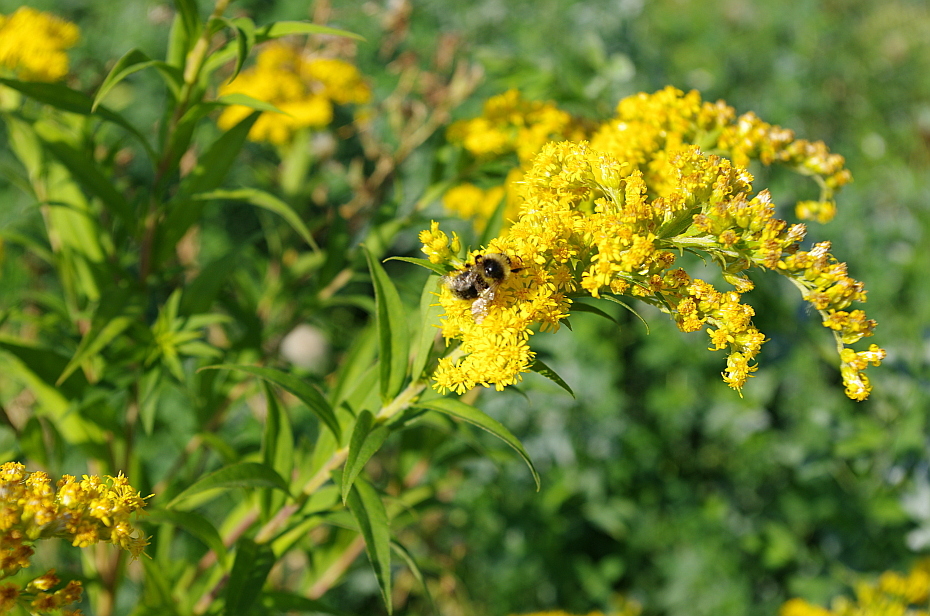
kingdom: Plantae
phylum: Tracheophyta
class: Magnoliopsida
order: Asterales
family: Asteraceae
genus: Solidago
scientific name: Solidago gigantea
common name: Giant goldenrod
